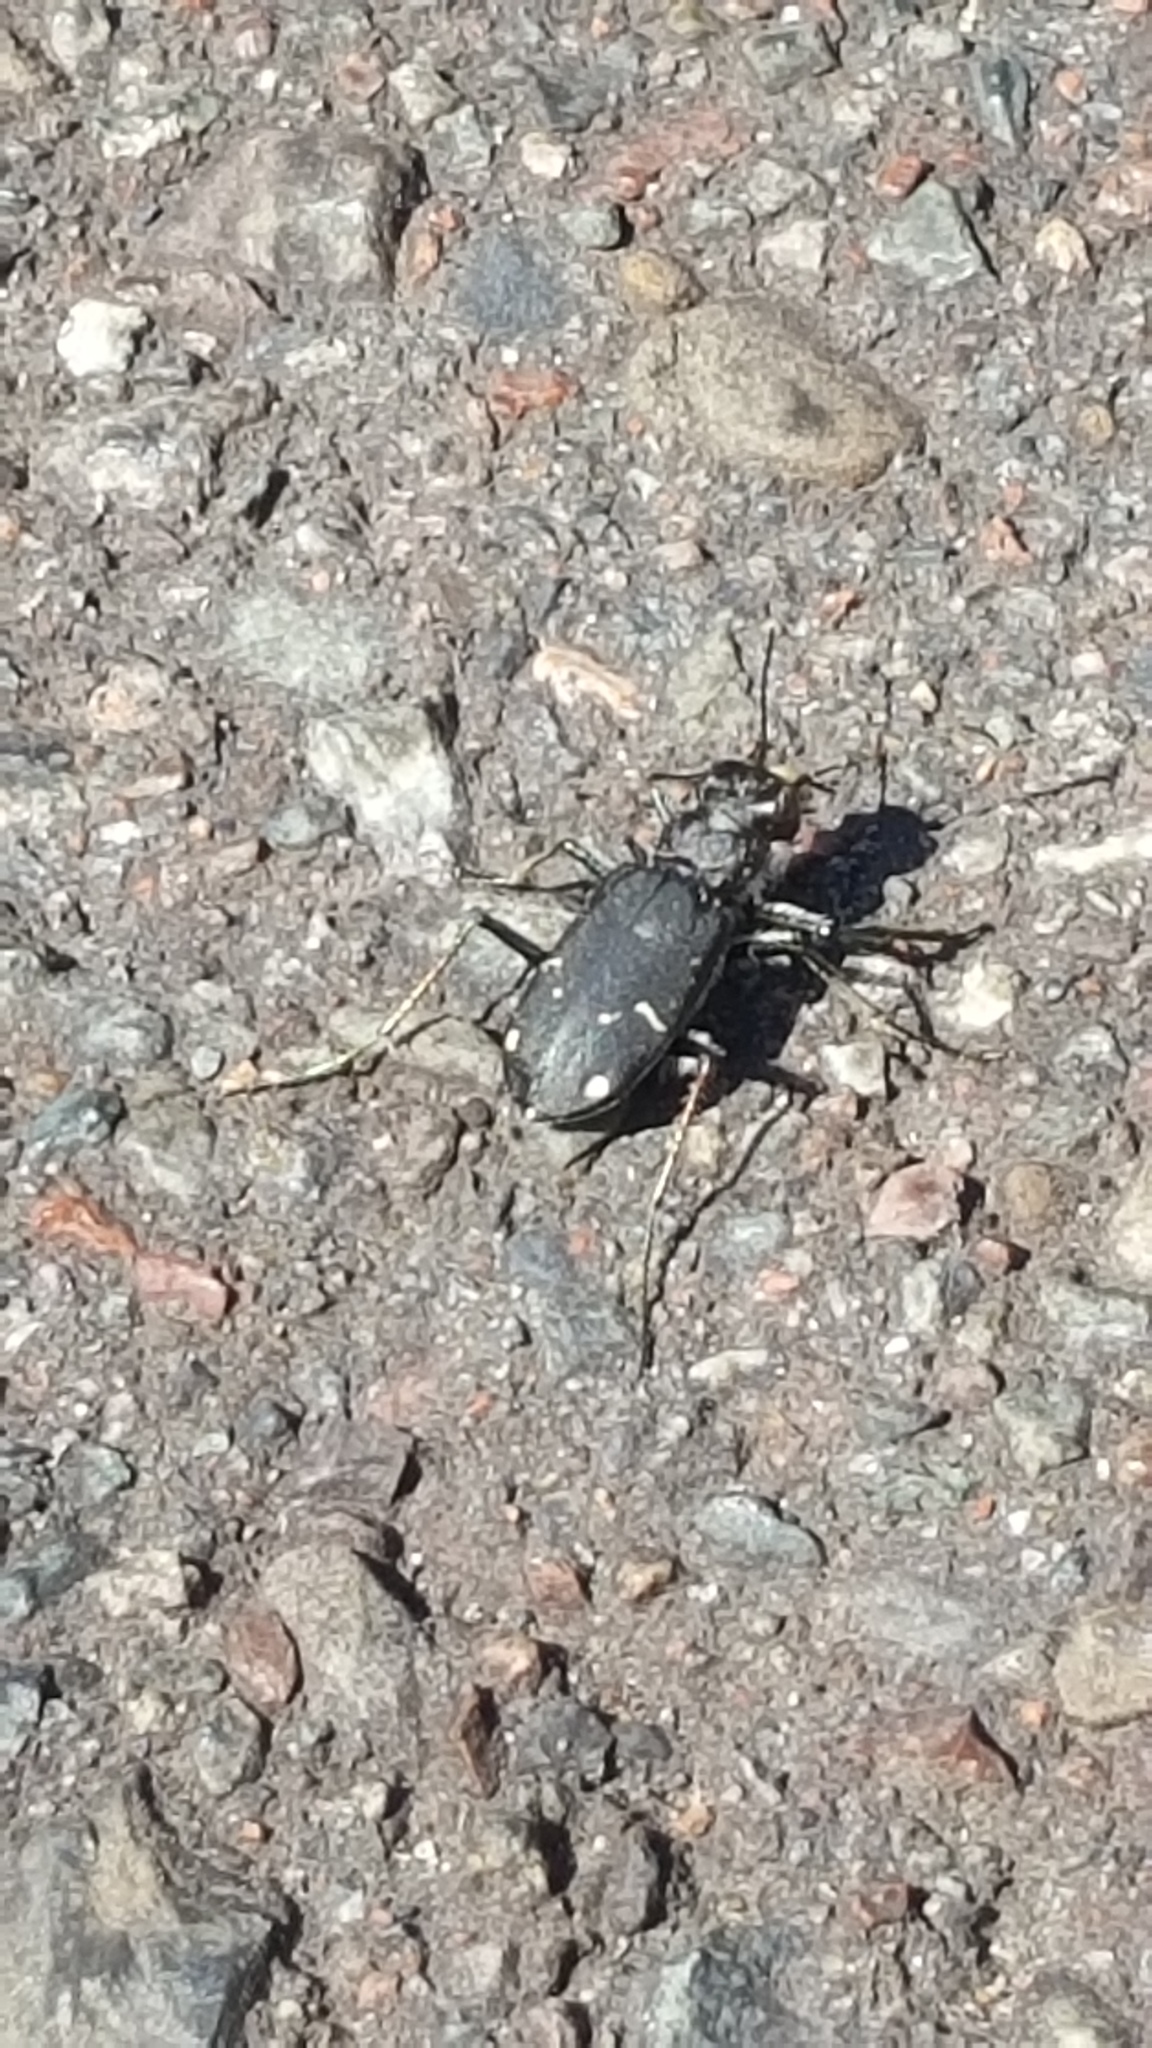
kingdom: Animalia
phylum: Arthropoda
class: Insecta
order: Coleoptera
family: Carabidae
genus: Cicindela
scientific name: Cicindela longilabris
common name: Boreal long-lipped tiger beetle
